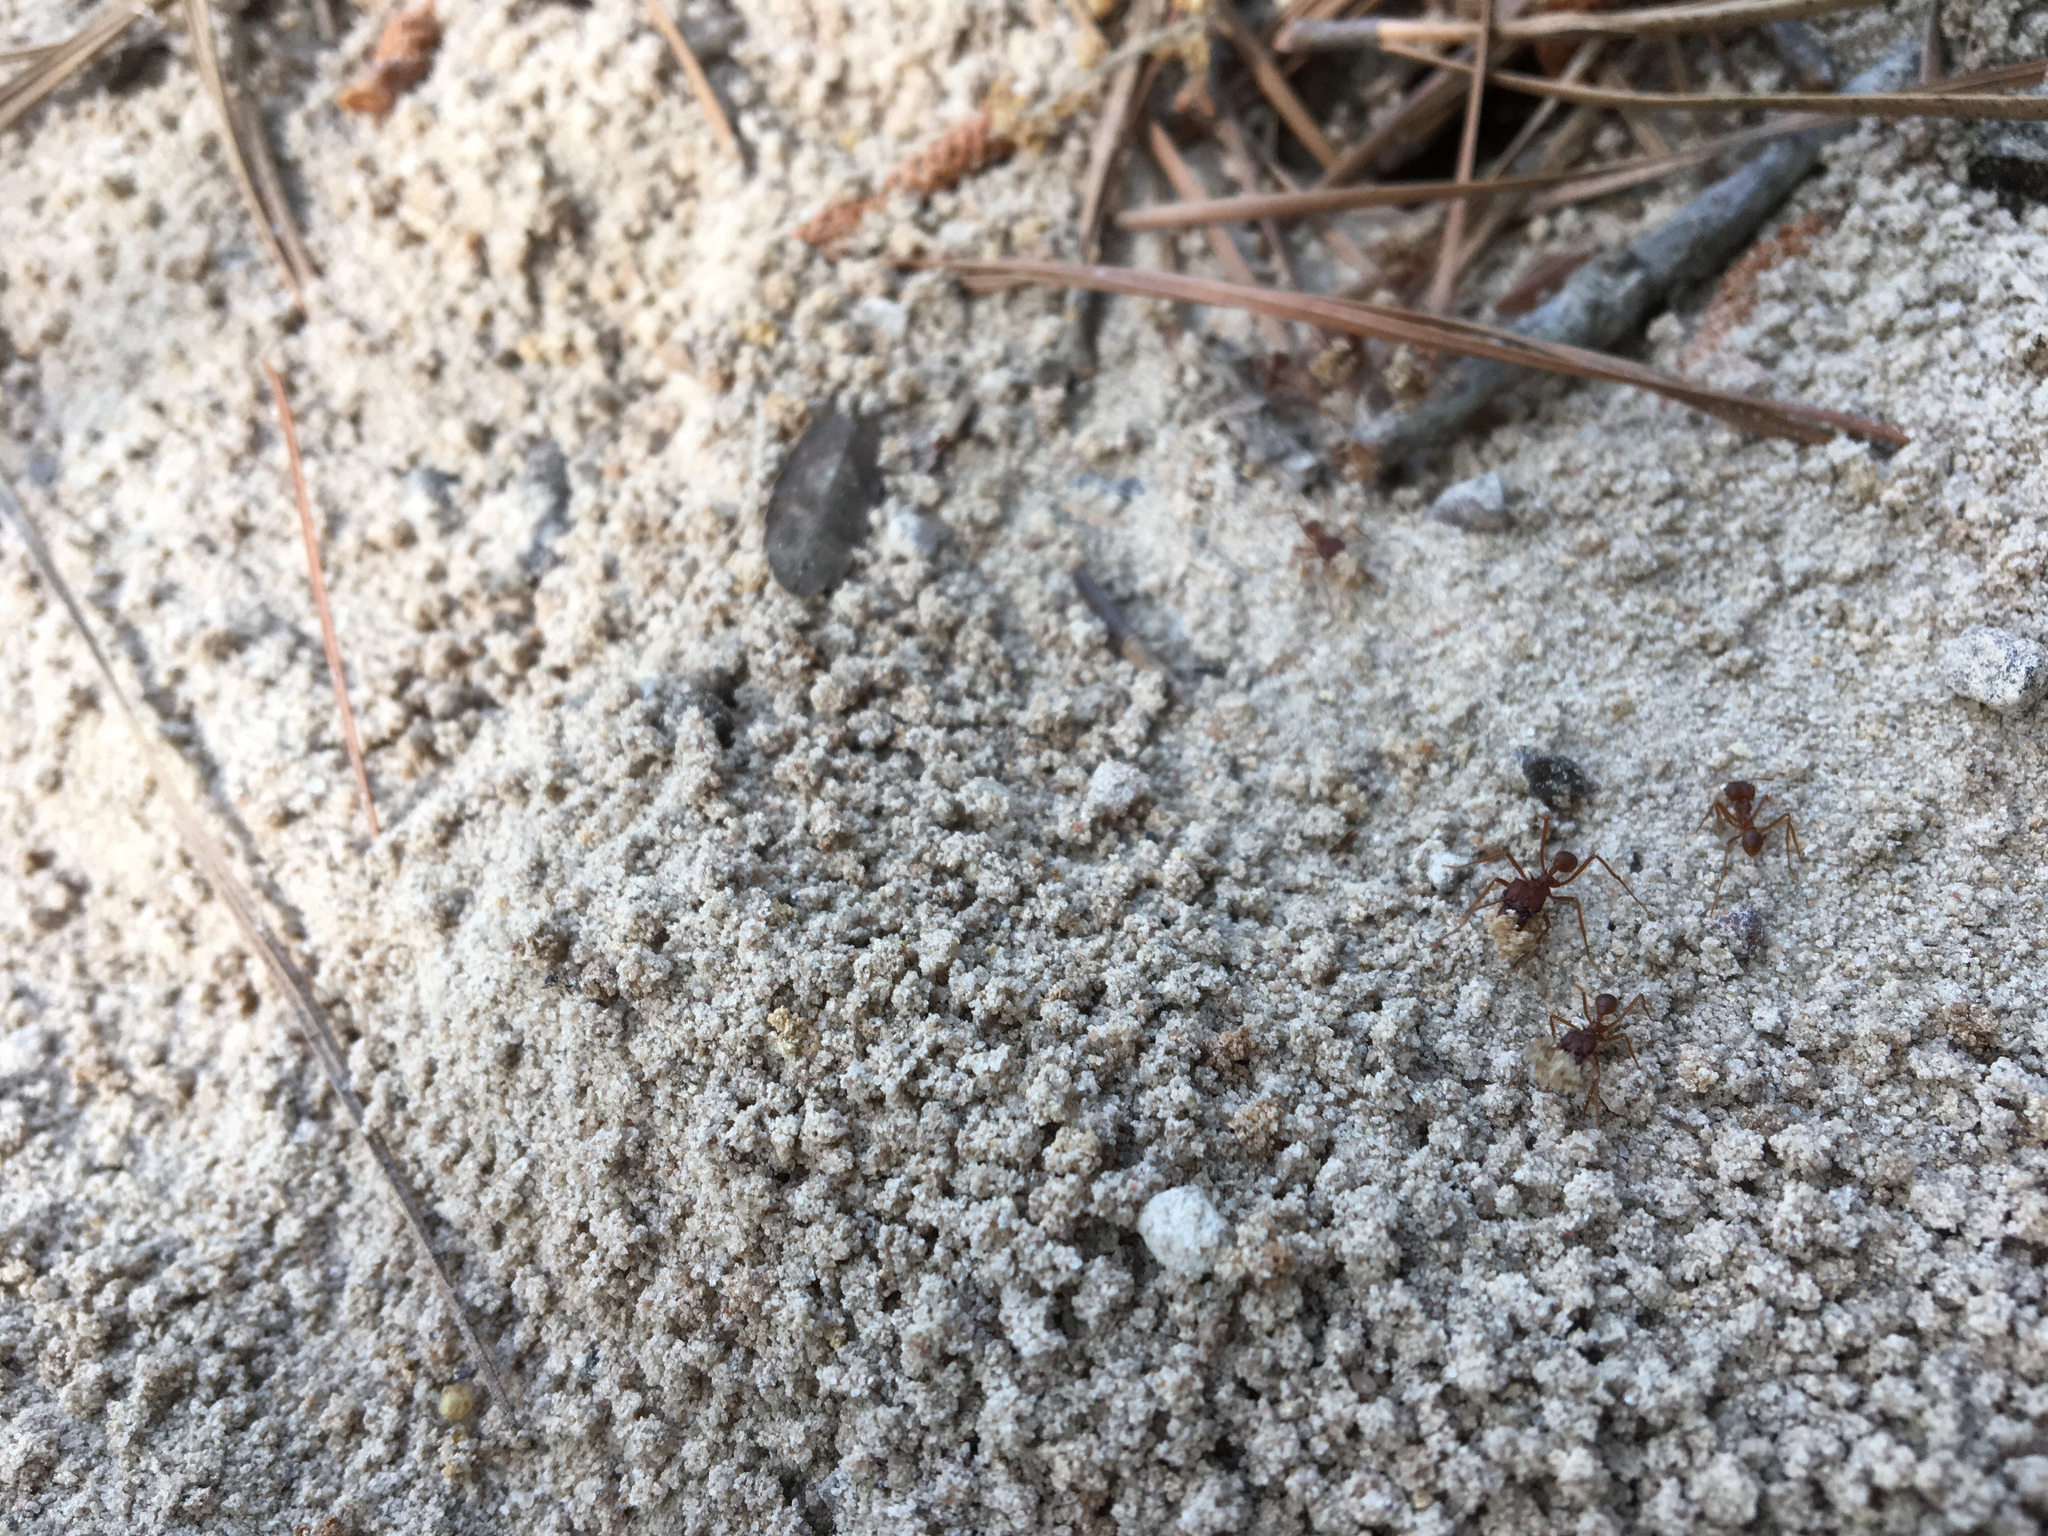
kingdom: Animalia
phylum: Arthropoda
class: Insecta
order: Hymenoptera
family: Formicidae
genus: Atta
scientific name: Atta texana
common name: Texas leafcutting ant
